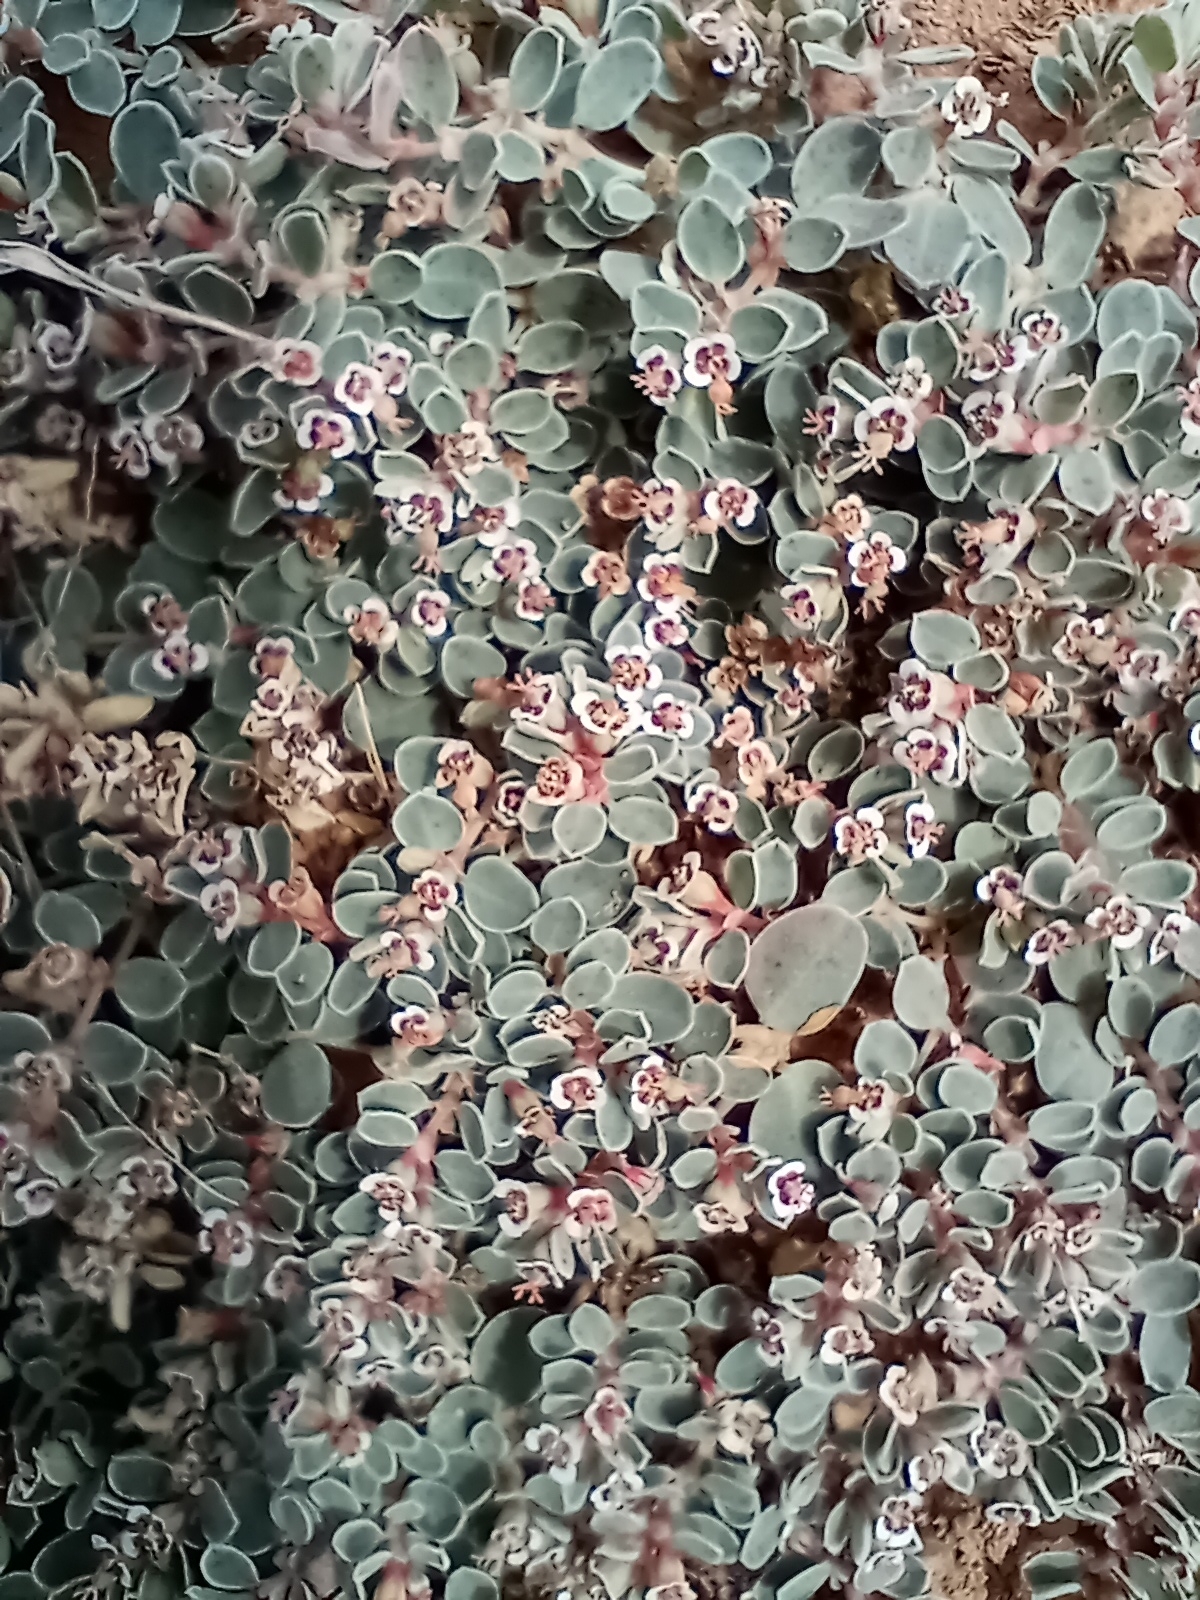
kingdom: Plantae
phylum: Tracheophyta
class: Magnoliopsida
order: Malpighiales
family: Euphorbiaceae
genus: Euphorbia
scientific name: Euphorbia albomarginata
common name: Whitemargin sandmat
